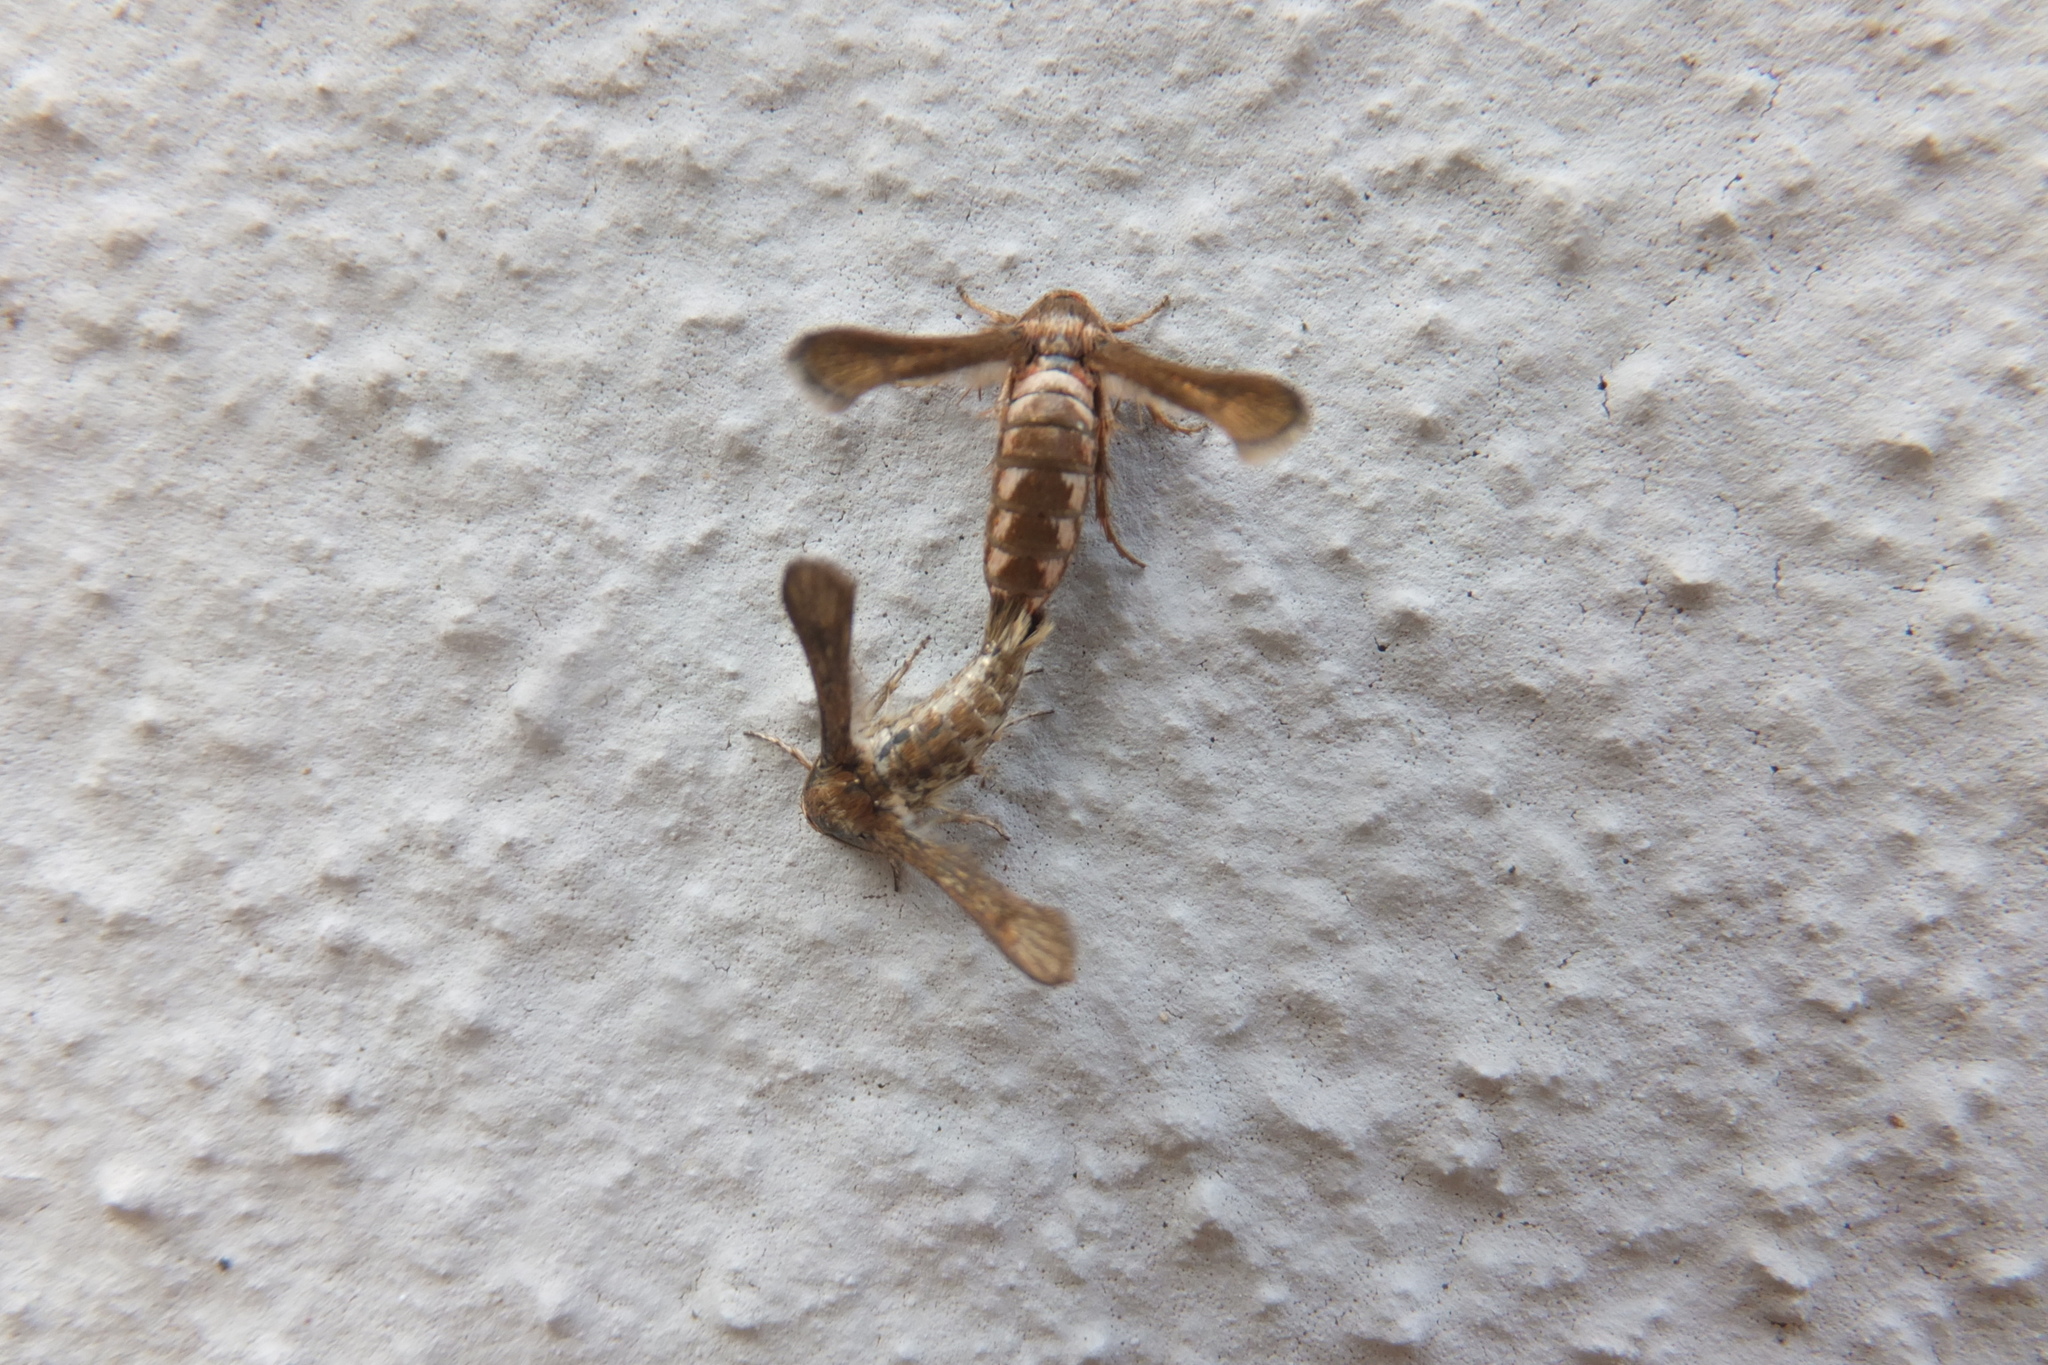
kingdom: Animalia
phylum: Arthropoda
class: Insecta
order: Lepidoptera
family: Sesiidae
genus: Microsphecia
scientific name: Microsphecia tineiformis
